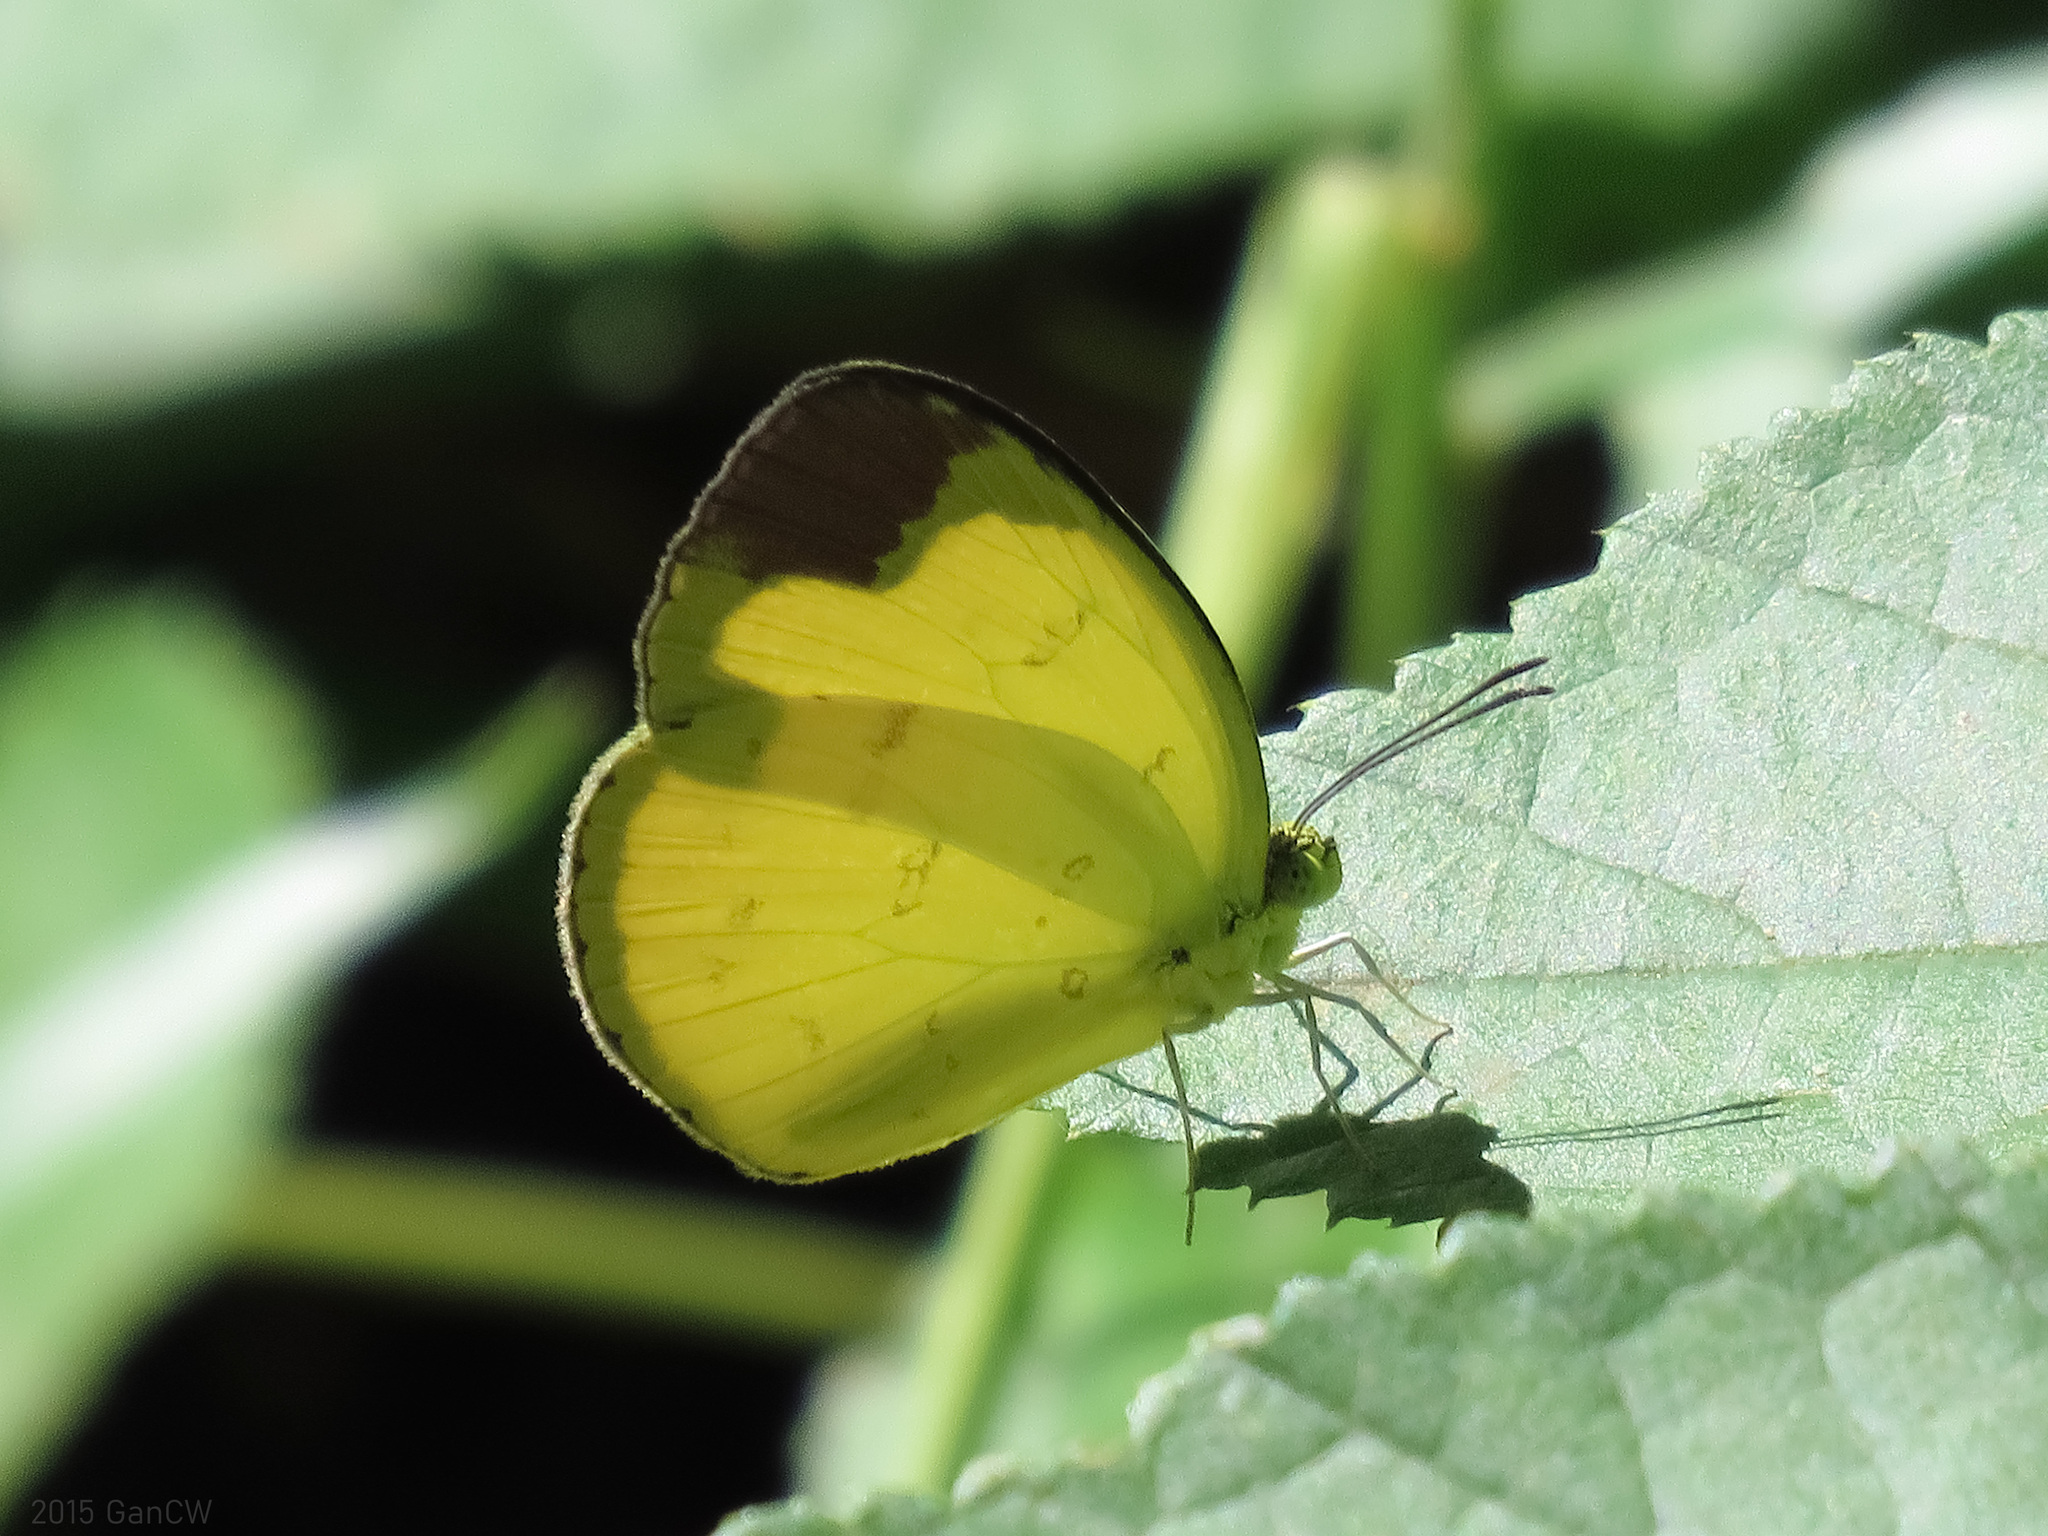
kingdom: Animalia
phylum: Arthropoda
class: Insecta
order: Lepidoptera
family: Pieridae
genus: Eurema
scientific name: Eurema sari
